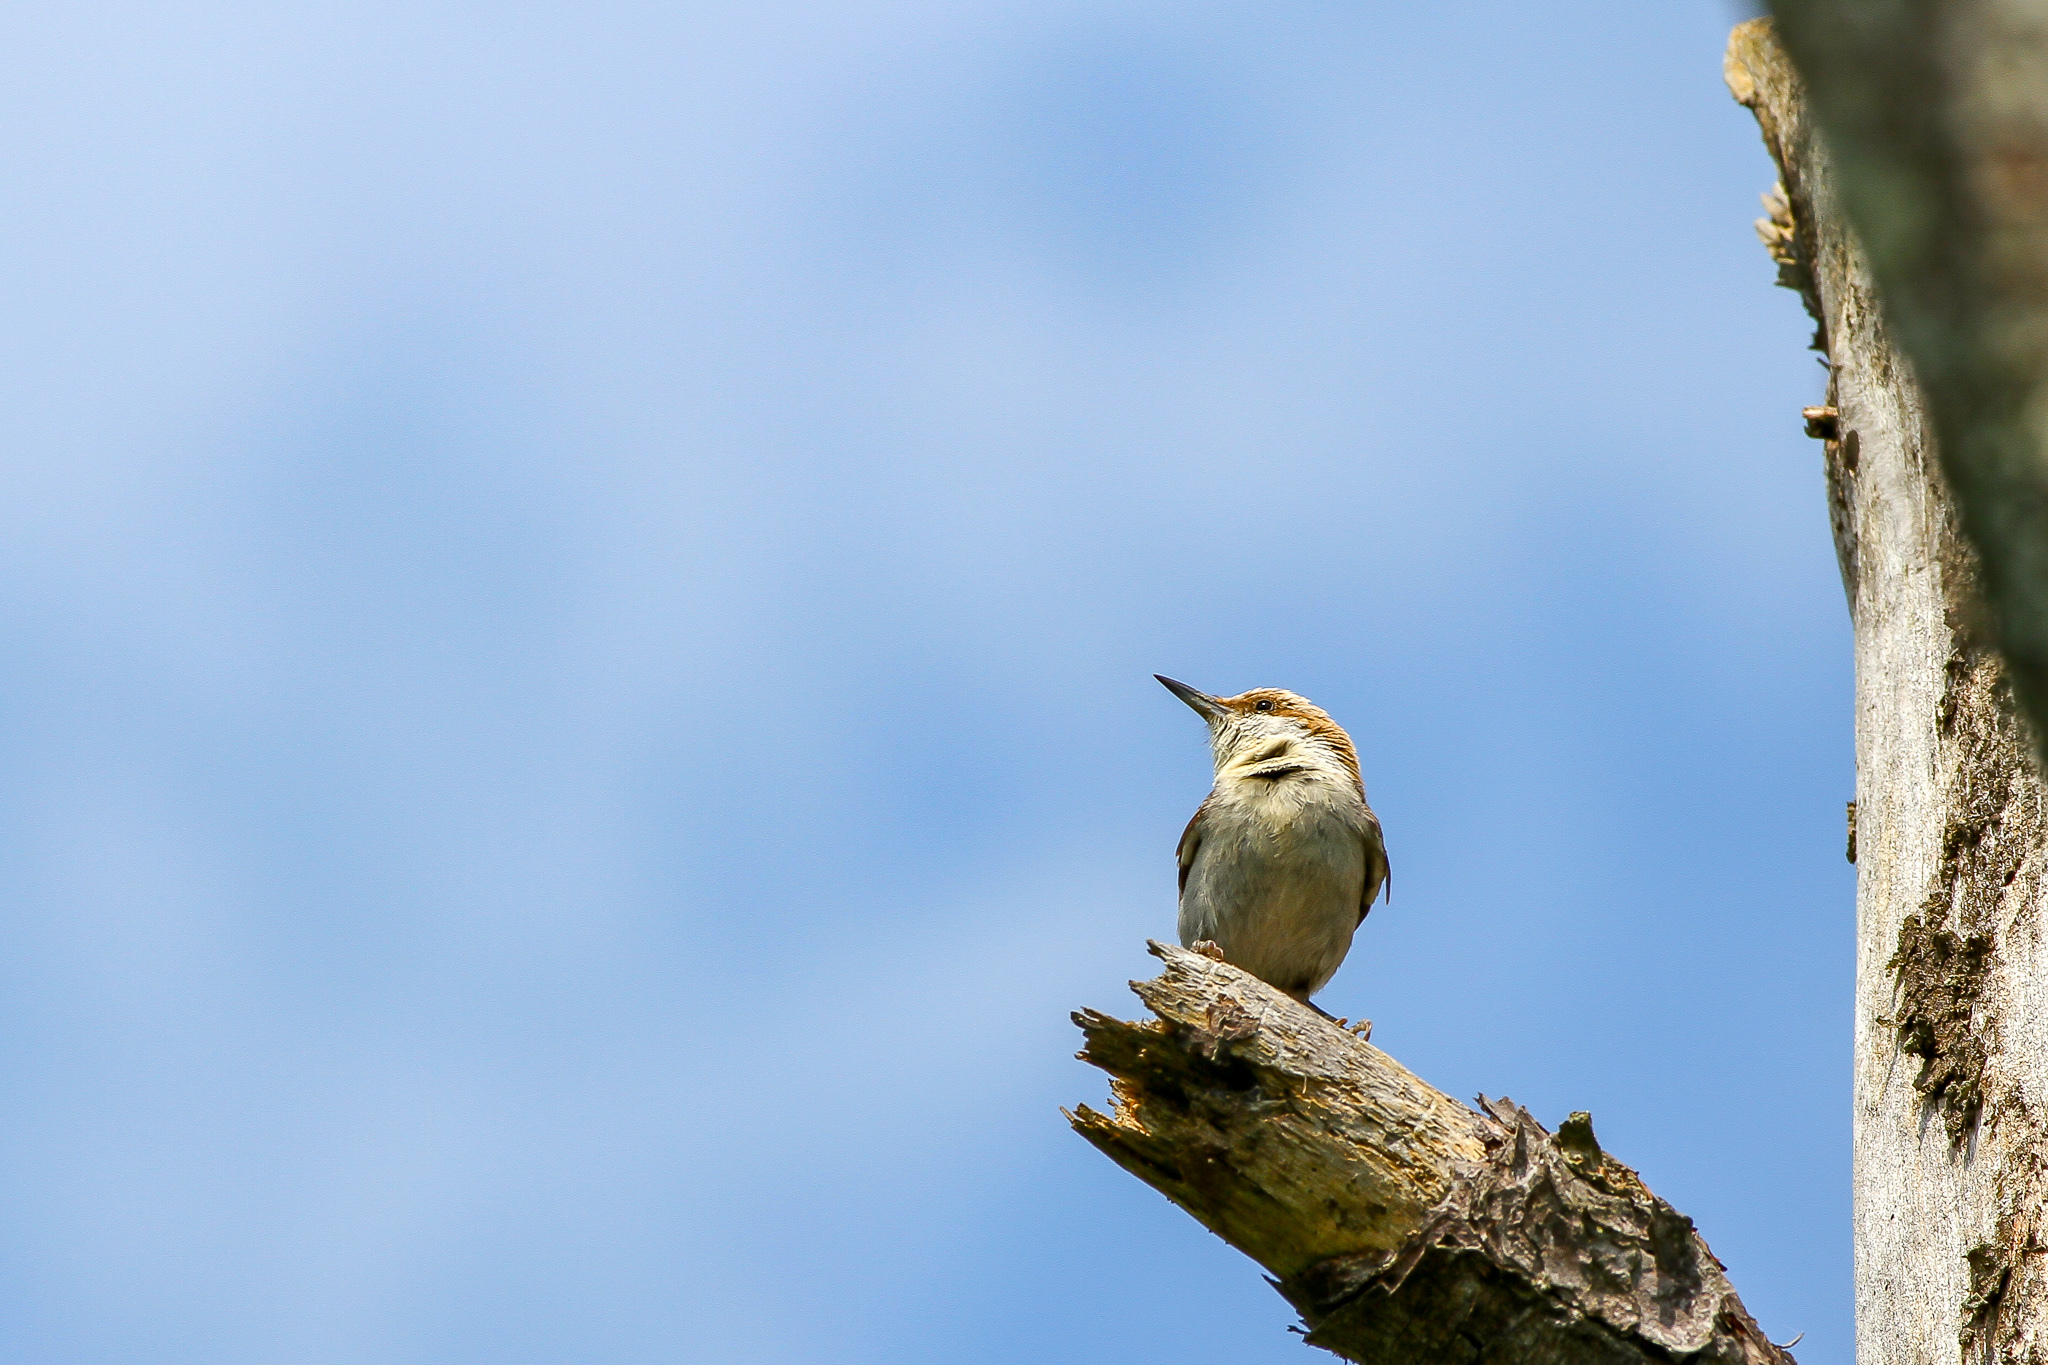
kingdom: Animalia
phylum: Chordata
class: Aves
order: Passeriformes
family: Sittidae
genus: Sitta
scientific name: Sitta pusilla
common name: Brown-headed nuthatch
